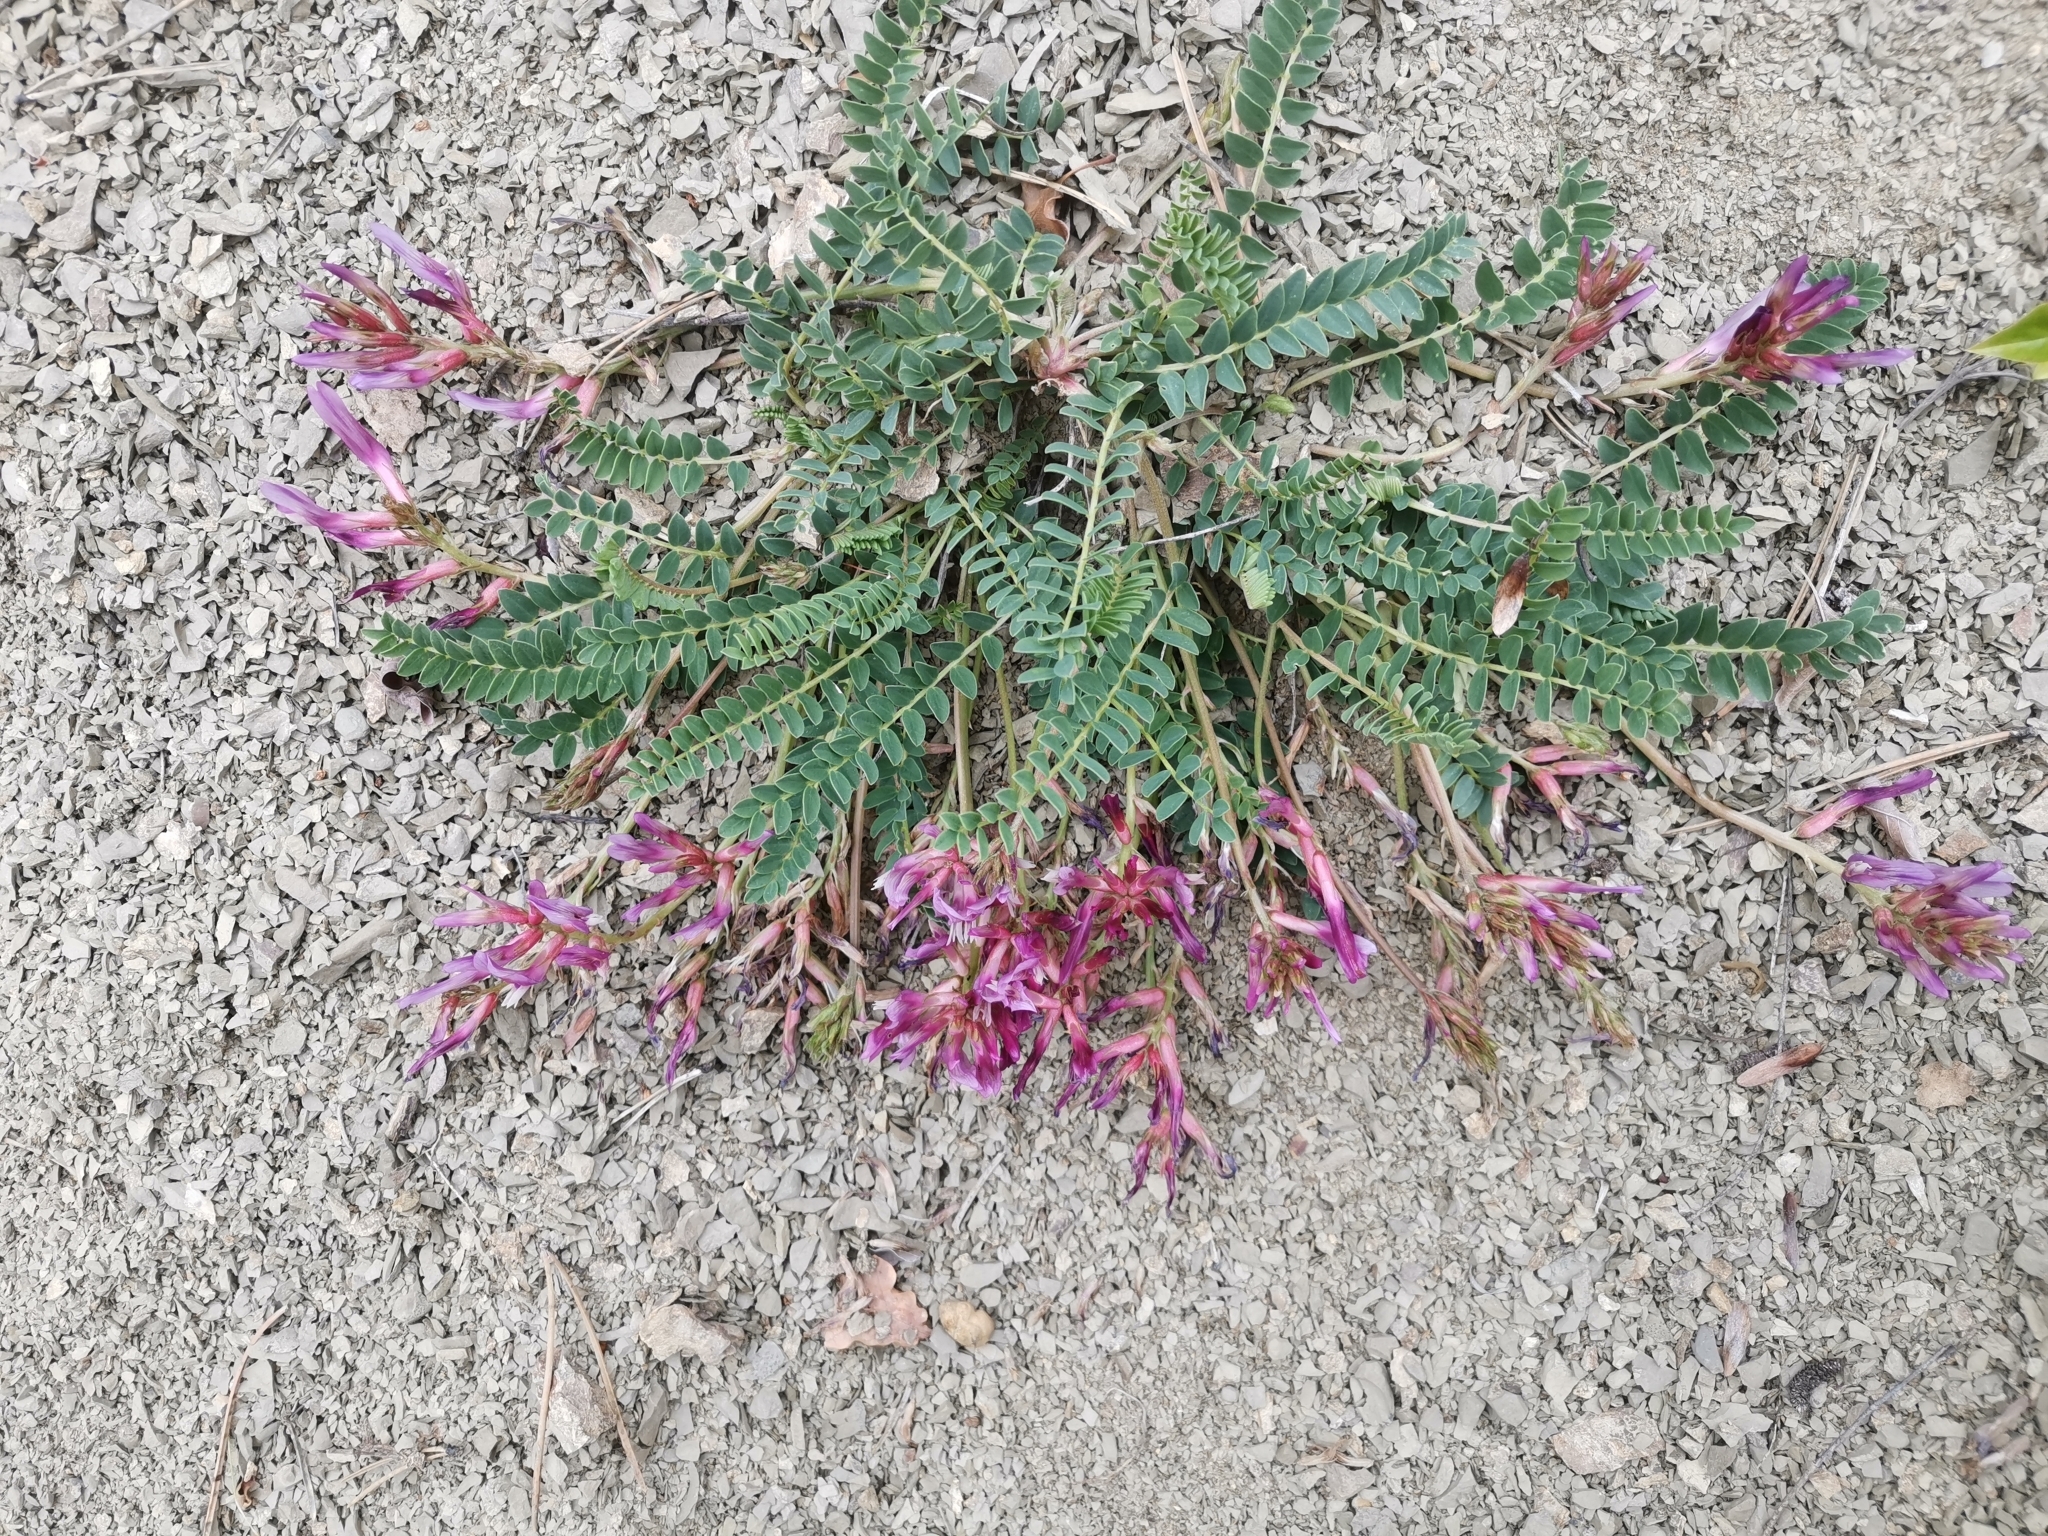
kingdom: Plantae
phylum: Tracheophyta
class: Magnoliopsida
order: Fabales
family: Fabaceae
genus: Astragalus
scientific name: Astragalus monspessulanus
